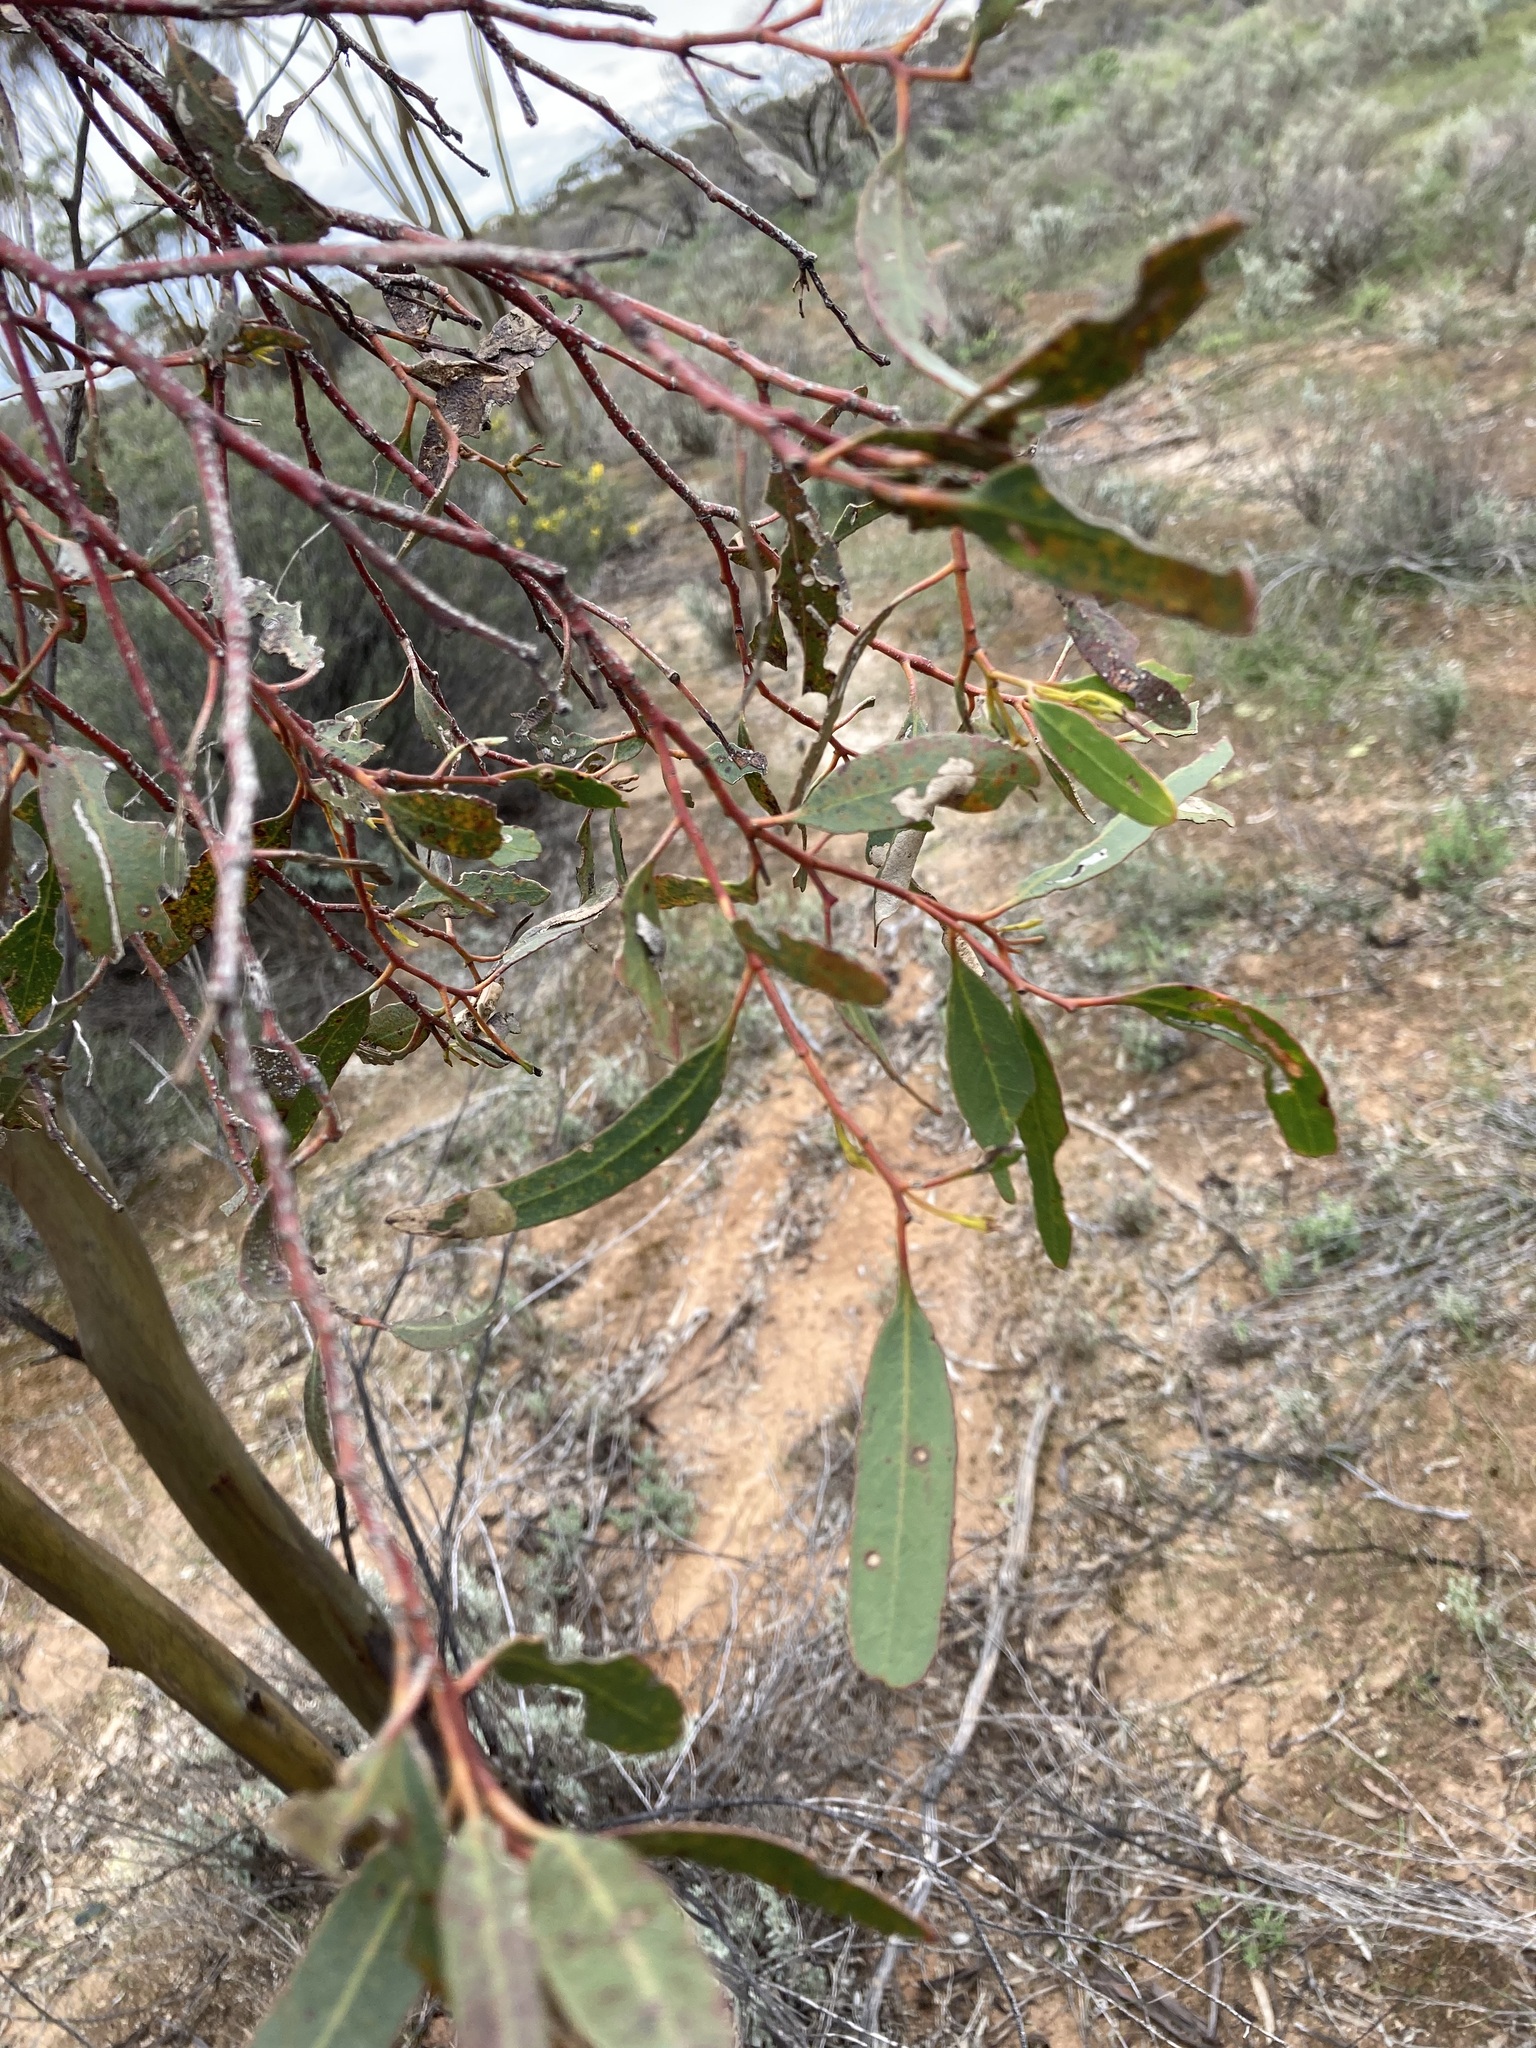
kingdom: Plantae
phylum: Tracheophyta
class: Magnoliopsida
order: Myrtales
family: Myrtaceae
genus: Eucalyptus
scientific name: Eucalyptus salubris
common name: Gimlet gum
